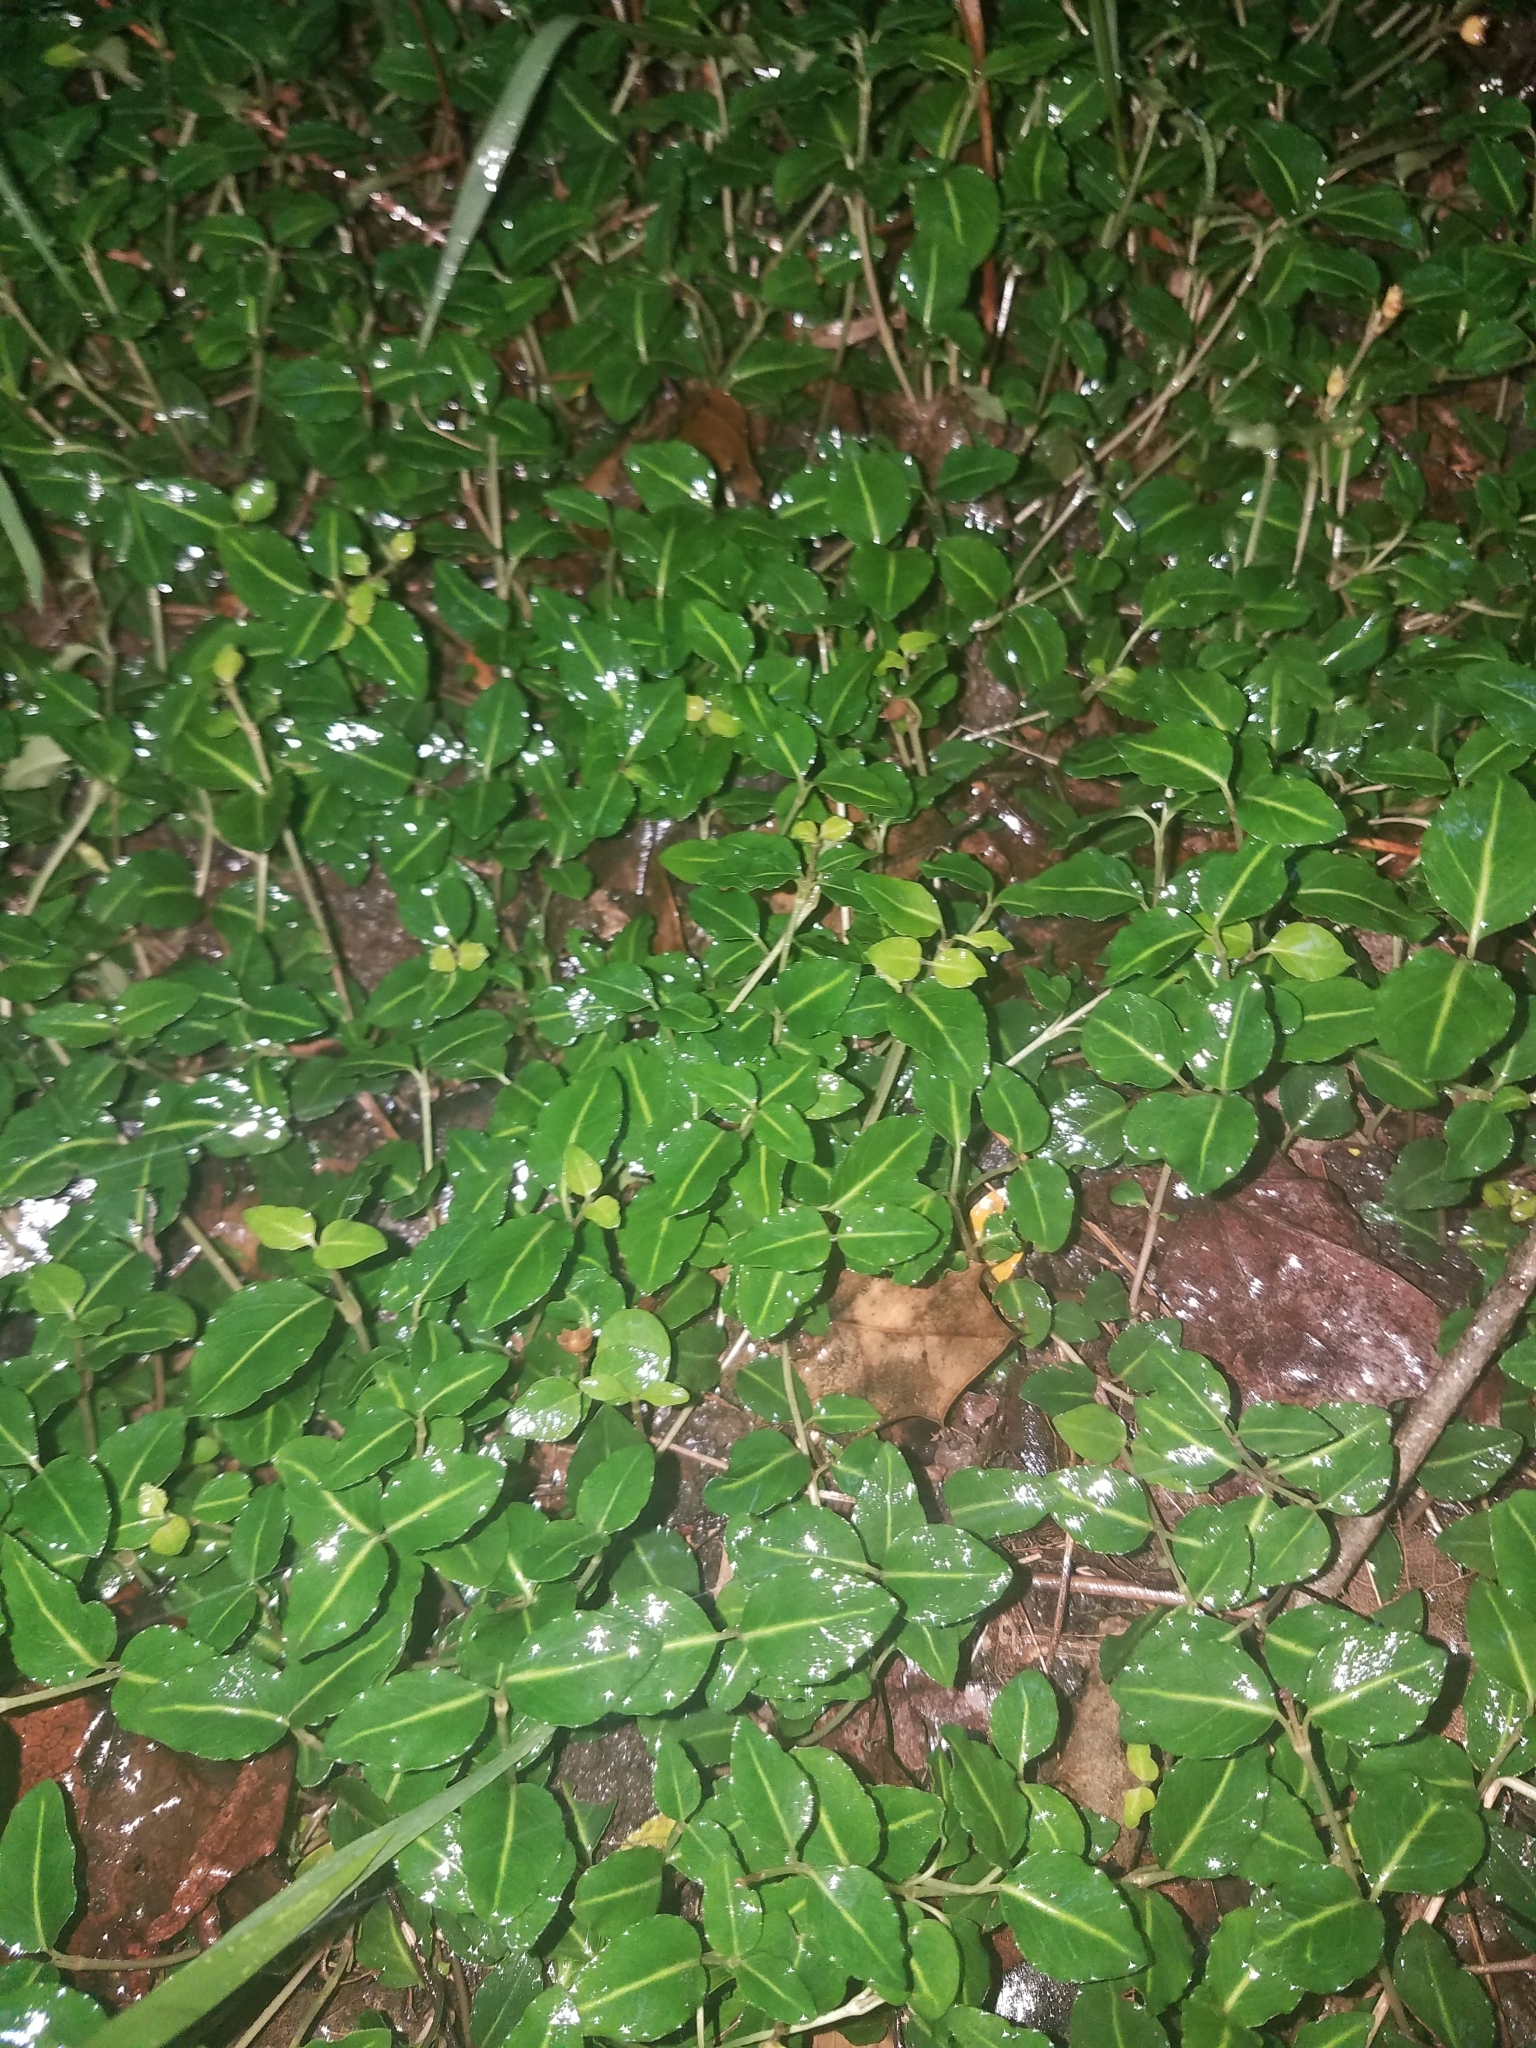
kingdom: Plantae
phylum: Tracheophyta
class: Magnoliopsida
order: Gentianales
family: Rubiaceae
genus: Mitchella
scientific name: Mitchella repens
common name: Partridge-berry
